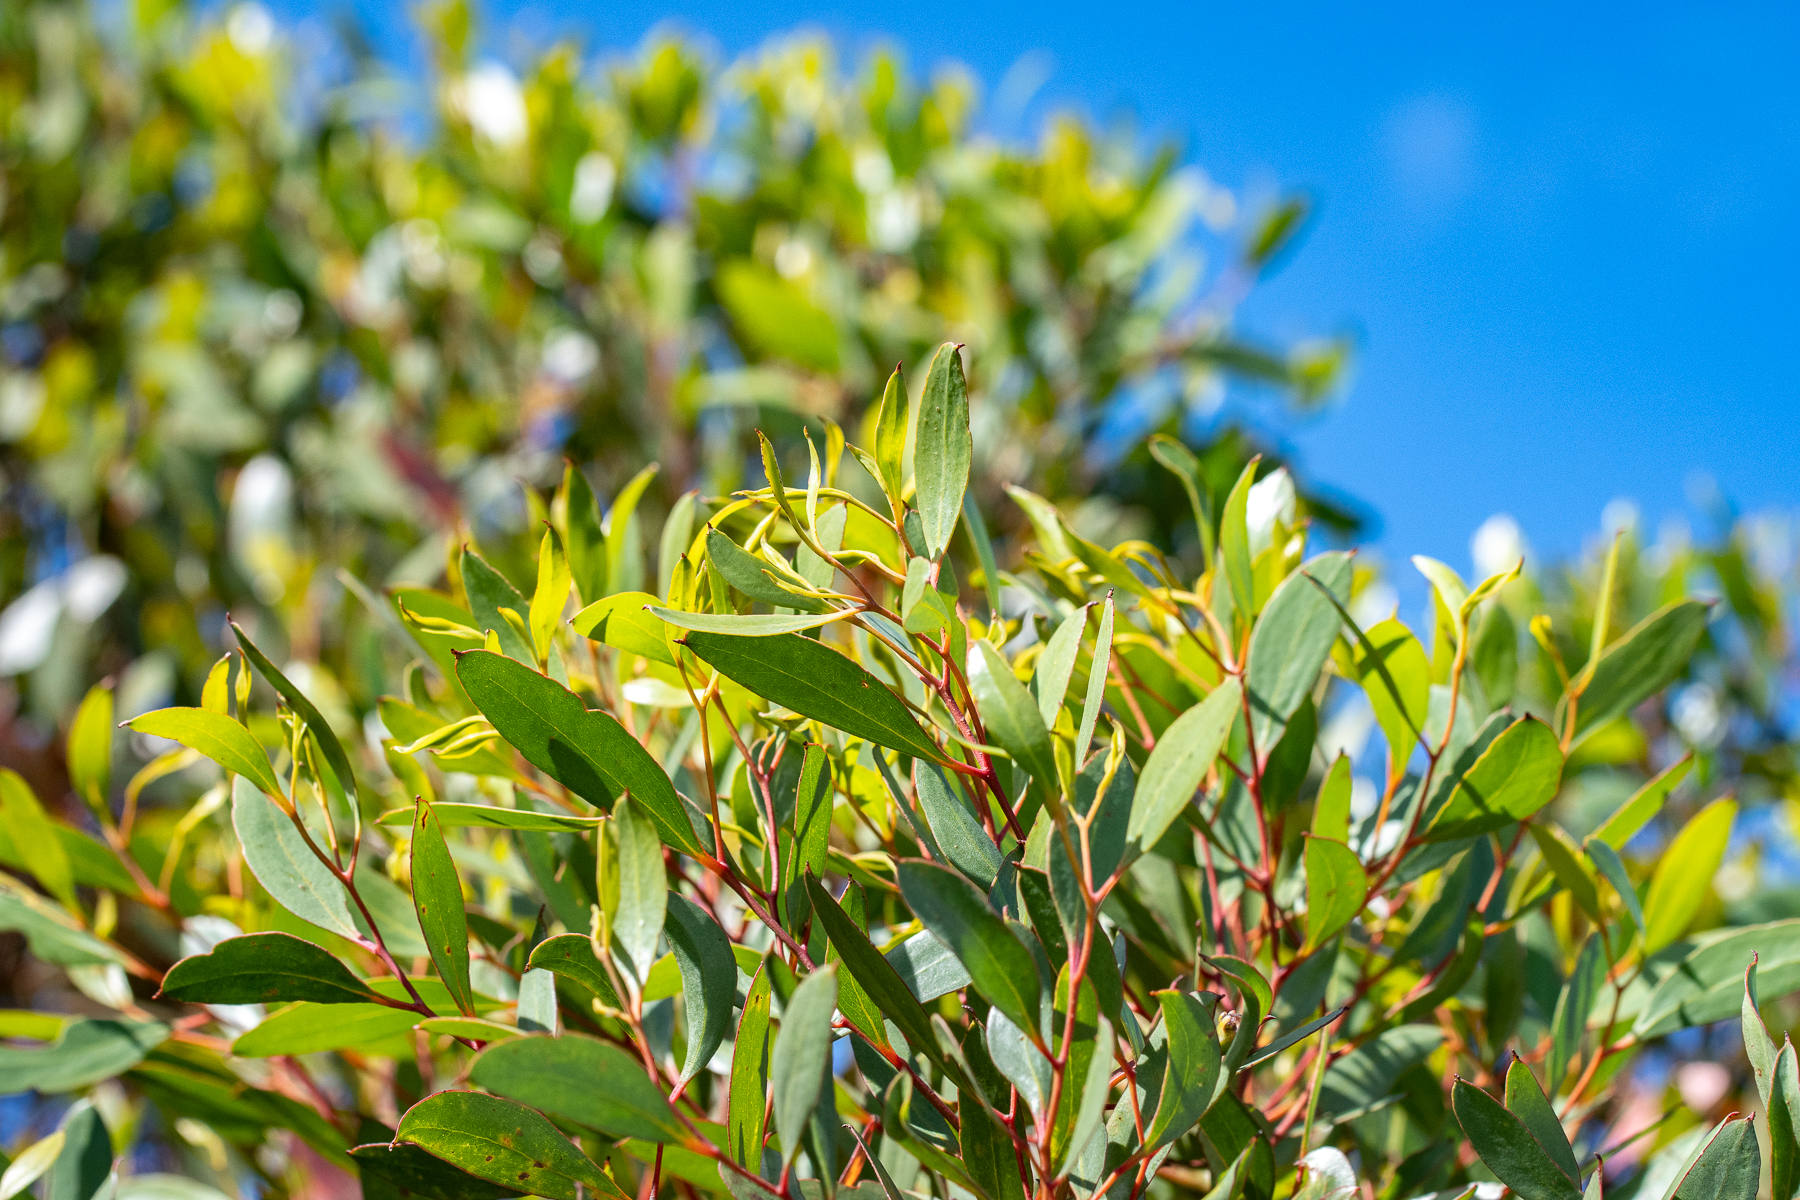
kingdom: Plantae
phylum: Tracheophyta
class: Magnoliopsida
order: Myrtales
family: Myrtaceae
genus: Eucalyptus
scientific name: Eucalyptus conferruminata
